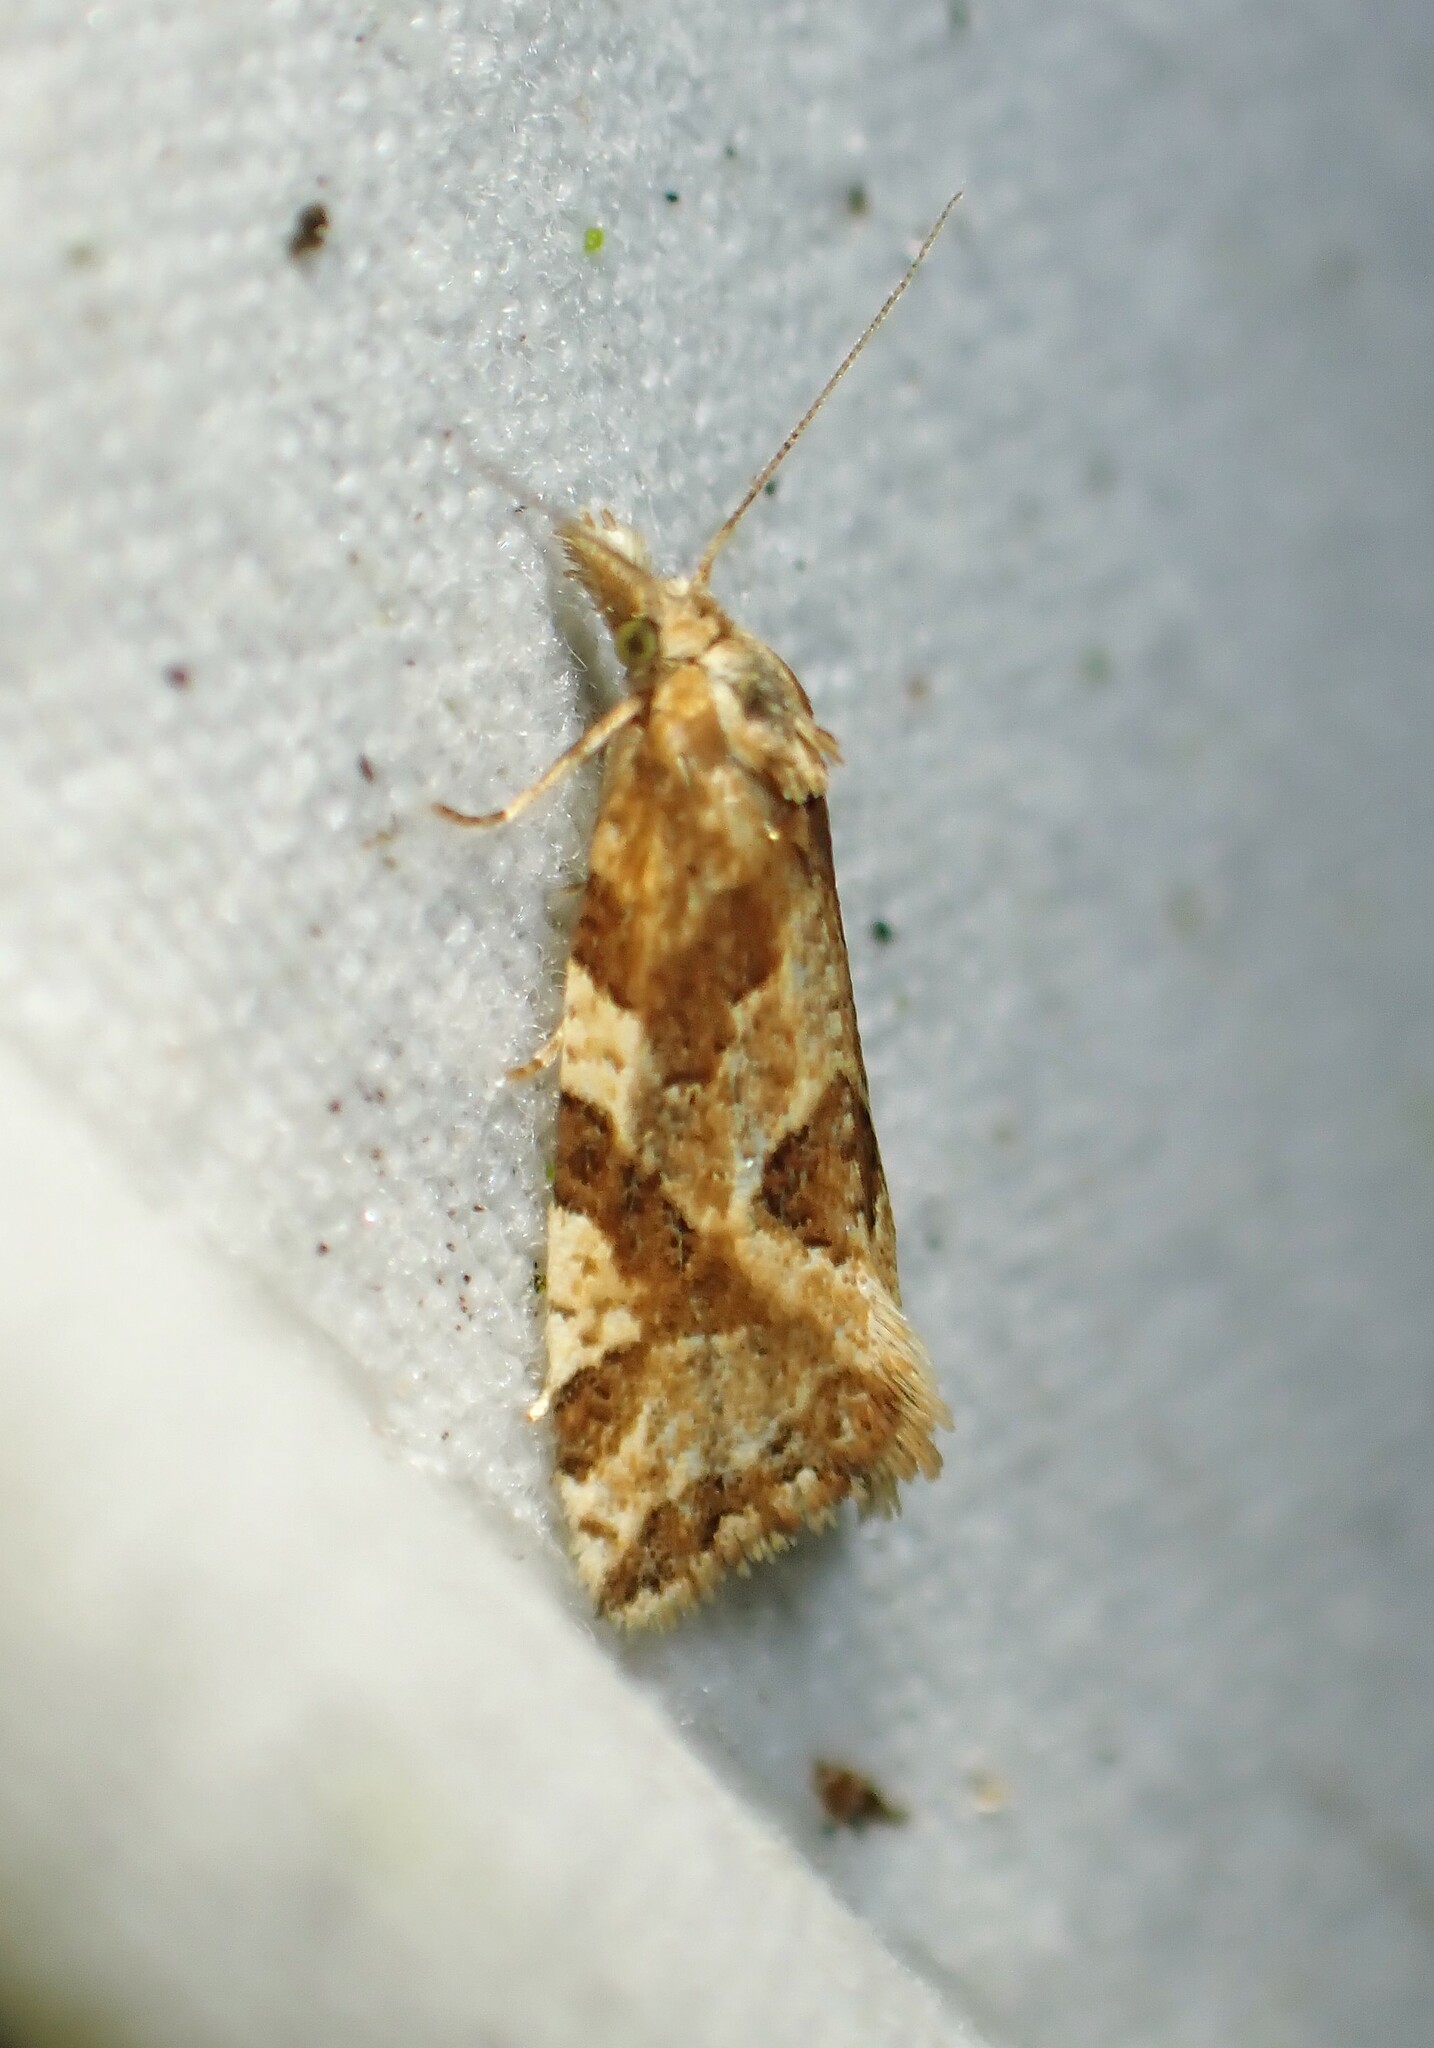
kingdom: Animalia
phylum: Arthropoda
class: Insecta
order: Lepidoptera
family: Tortricidae
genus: Aethes
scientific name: Aethes sexdentata
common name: Six-toothed aethes
